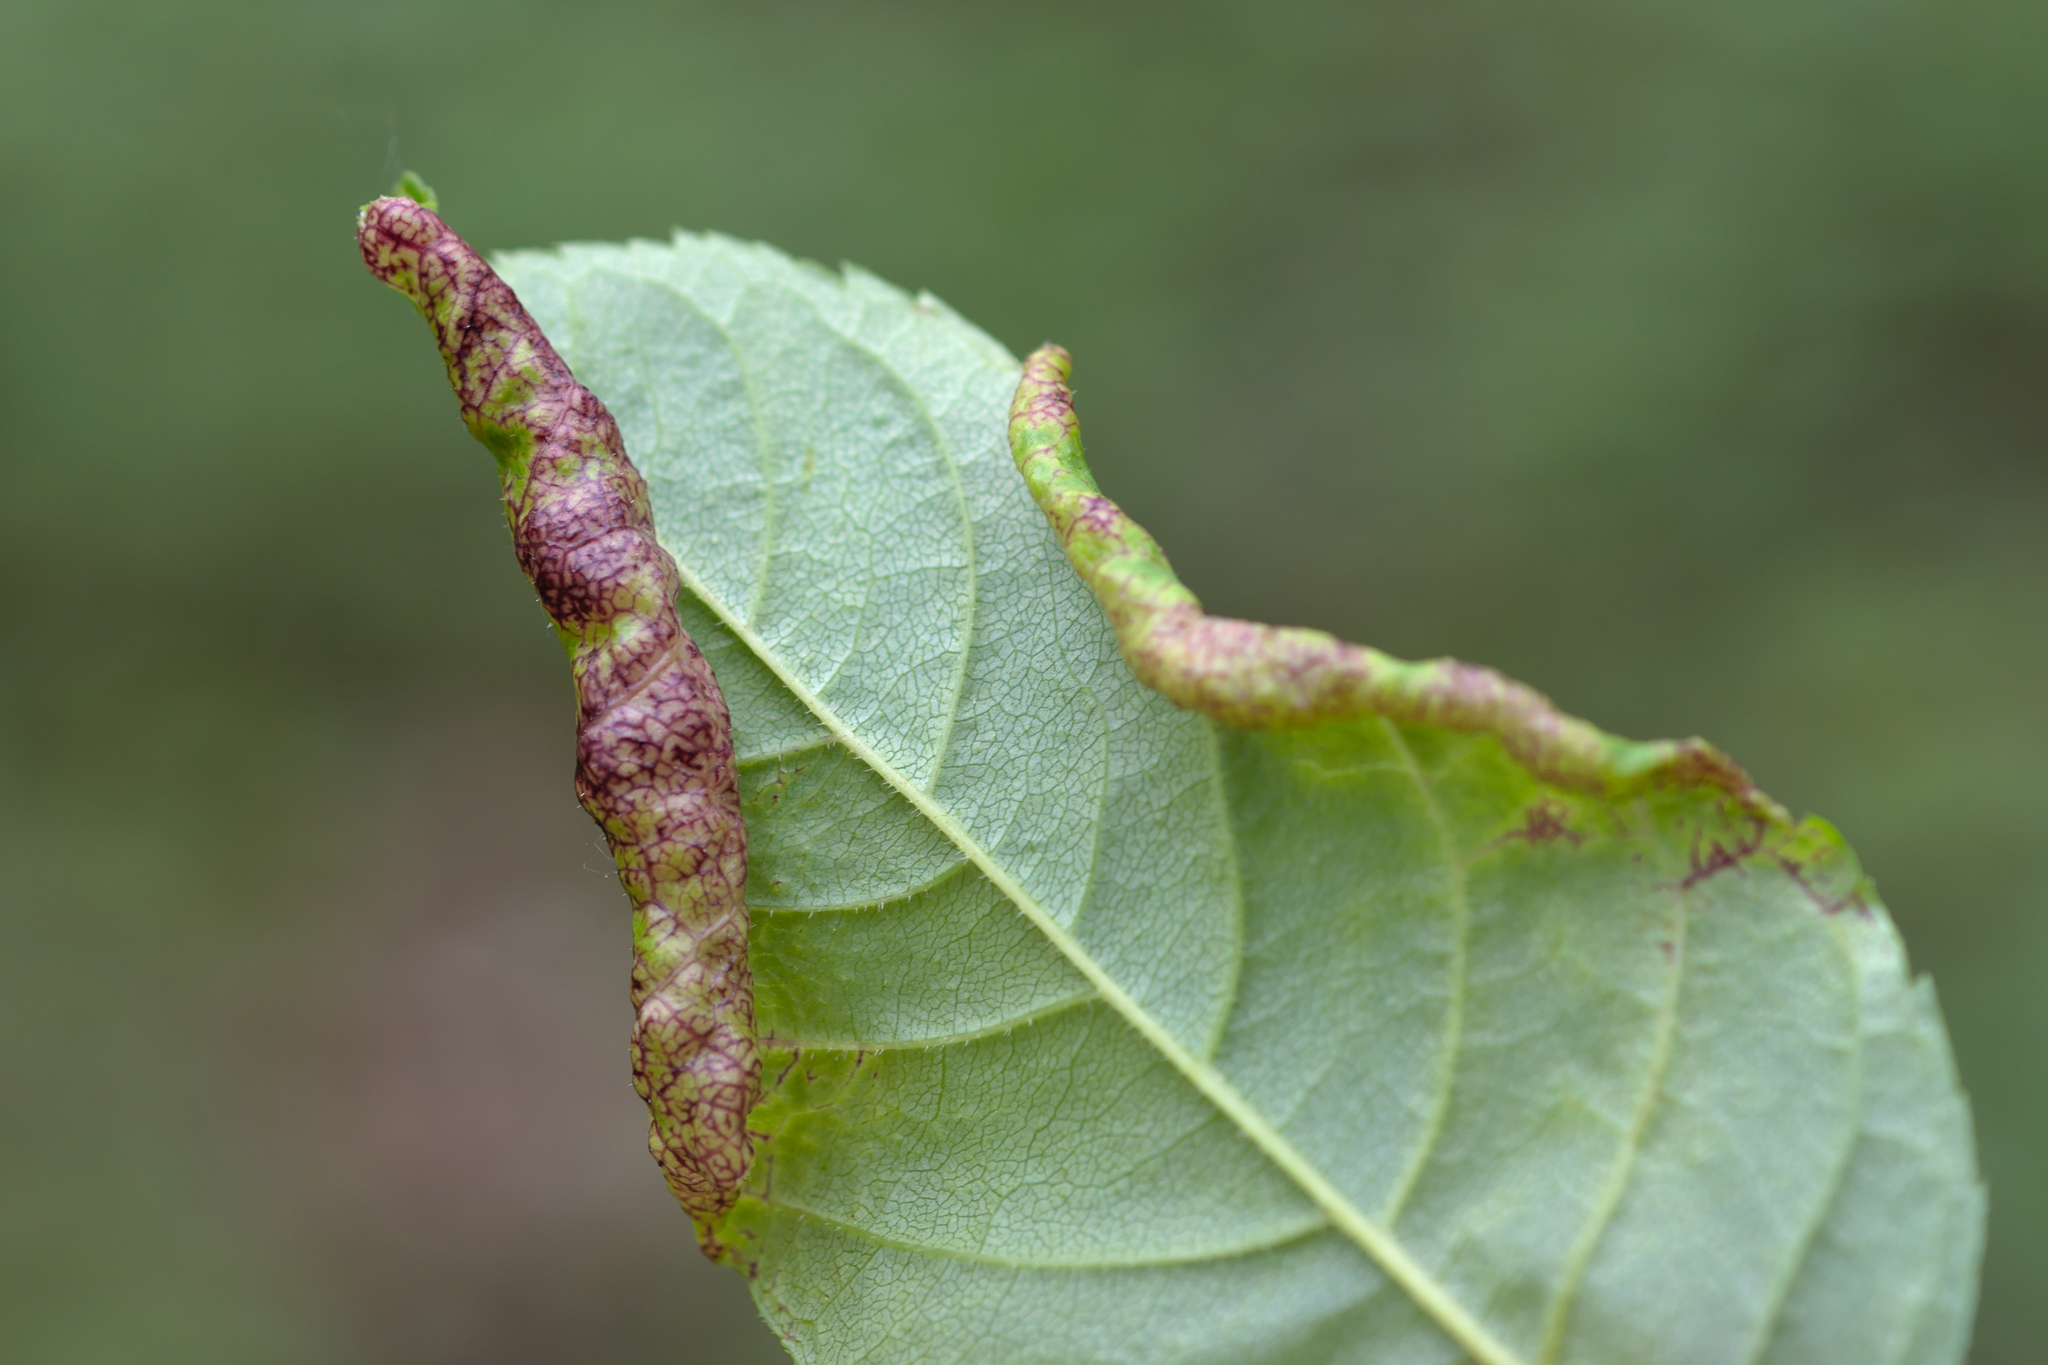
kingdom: Animalia
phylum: Arthropoda
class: Insecta
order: Hemiptera
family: Liviidae
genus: Psyllopsis
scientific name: Psyllopsis fraxini
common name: Jumping plant louse
